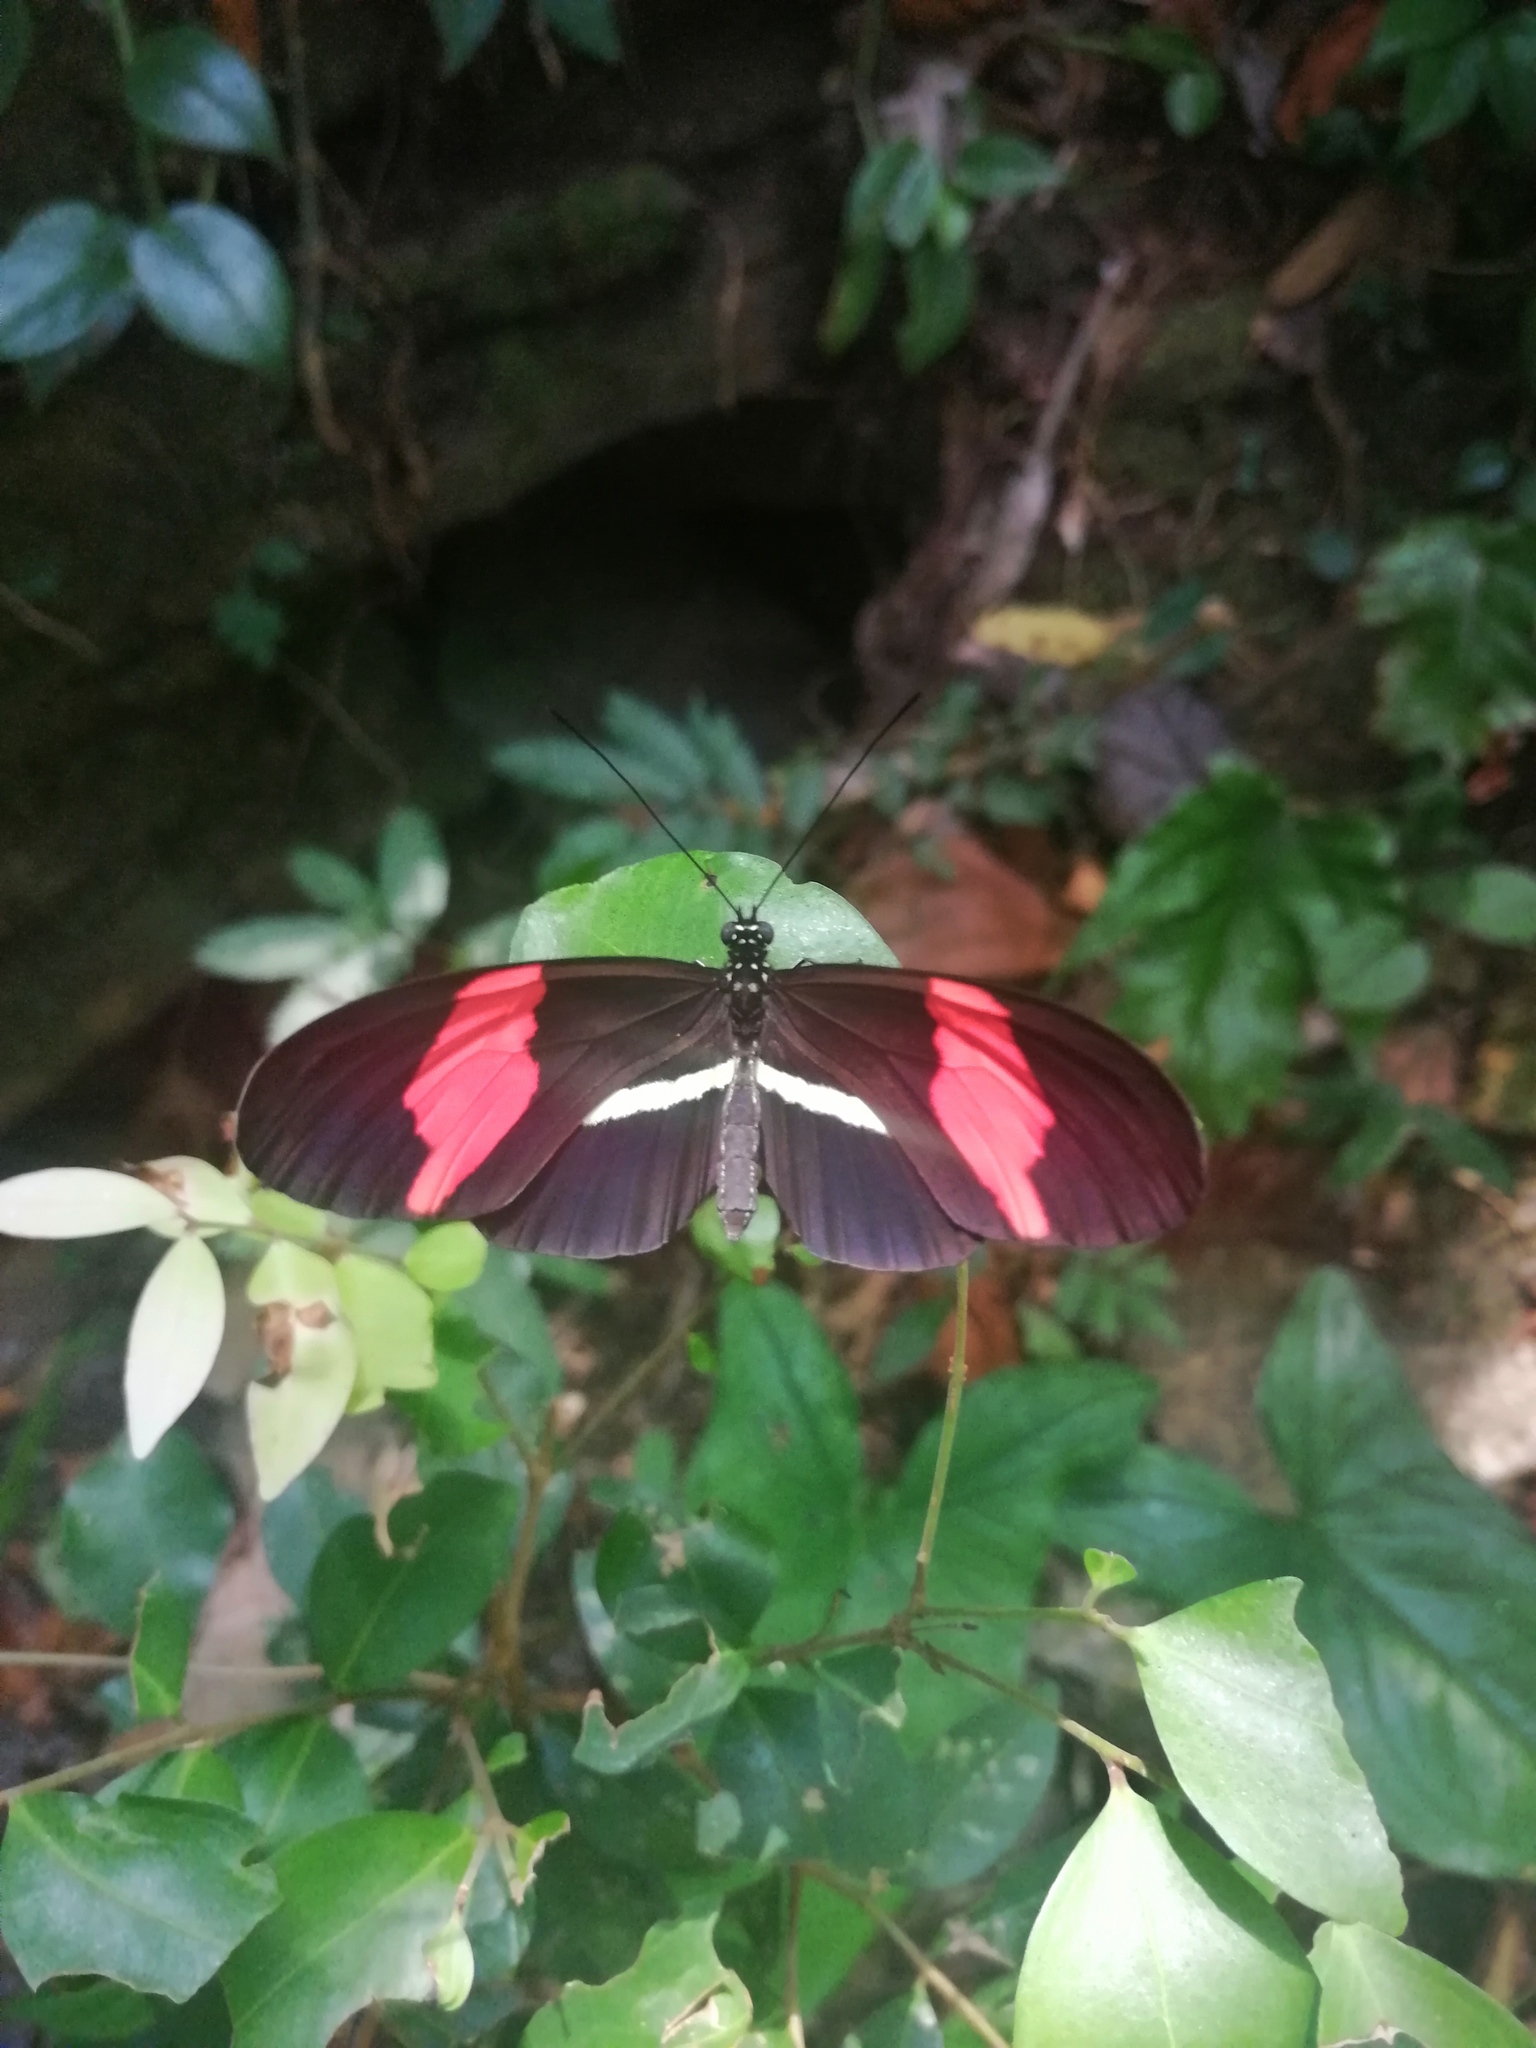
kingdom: Animalia
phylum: Arthropoda
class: Insecta
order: Lepidoptera
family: Nymphalidae
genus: Tirumala
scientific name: Tirumala petiverana
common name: Blue monarch
